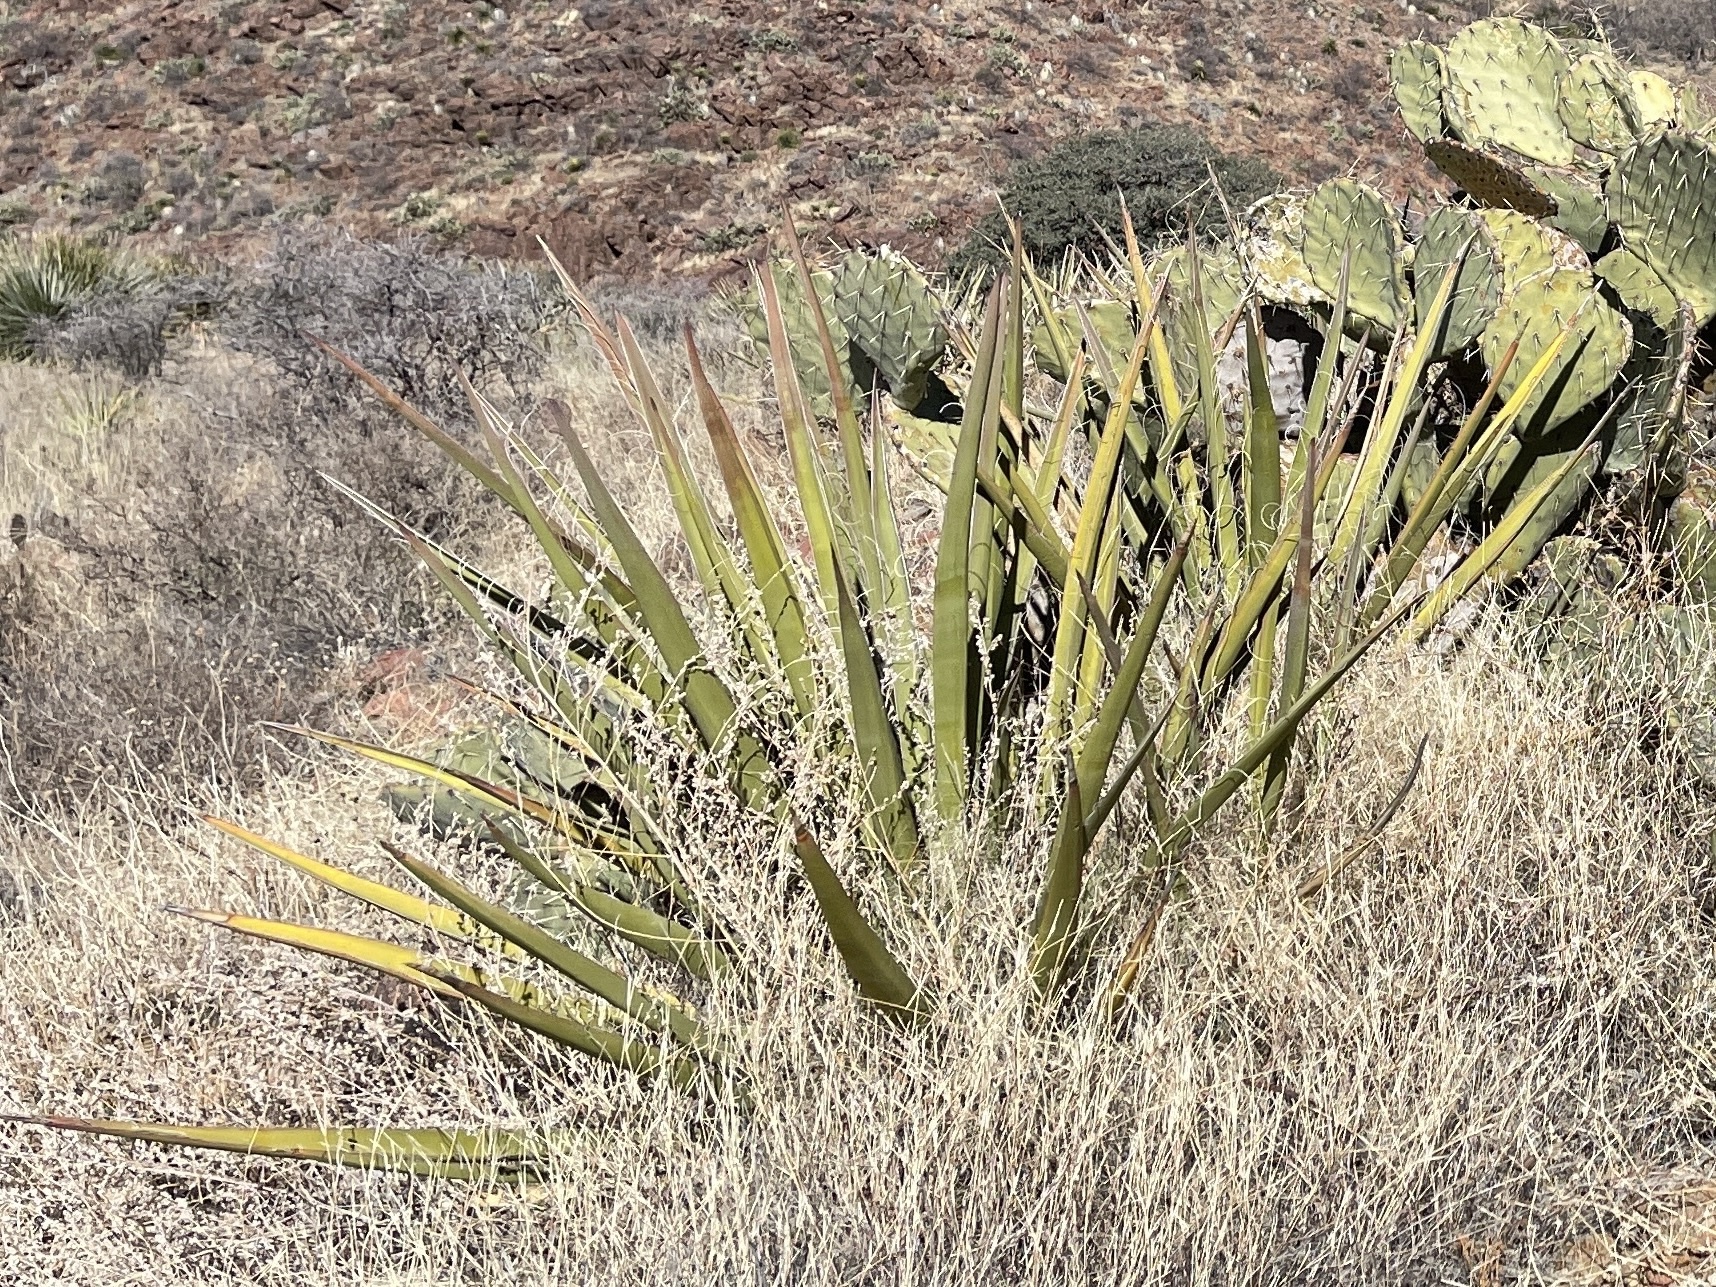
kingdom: Plantae
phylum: Tracheophyta
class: Liliopsida
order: Asparagales
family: Asparagaceae
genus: Yucca
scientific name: Yucca baccata
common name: Banana yucca
